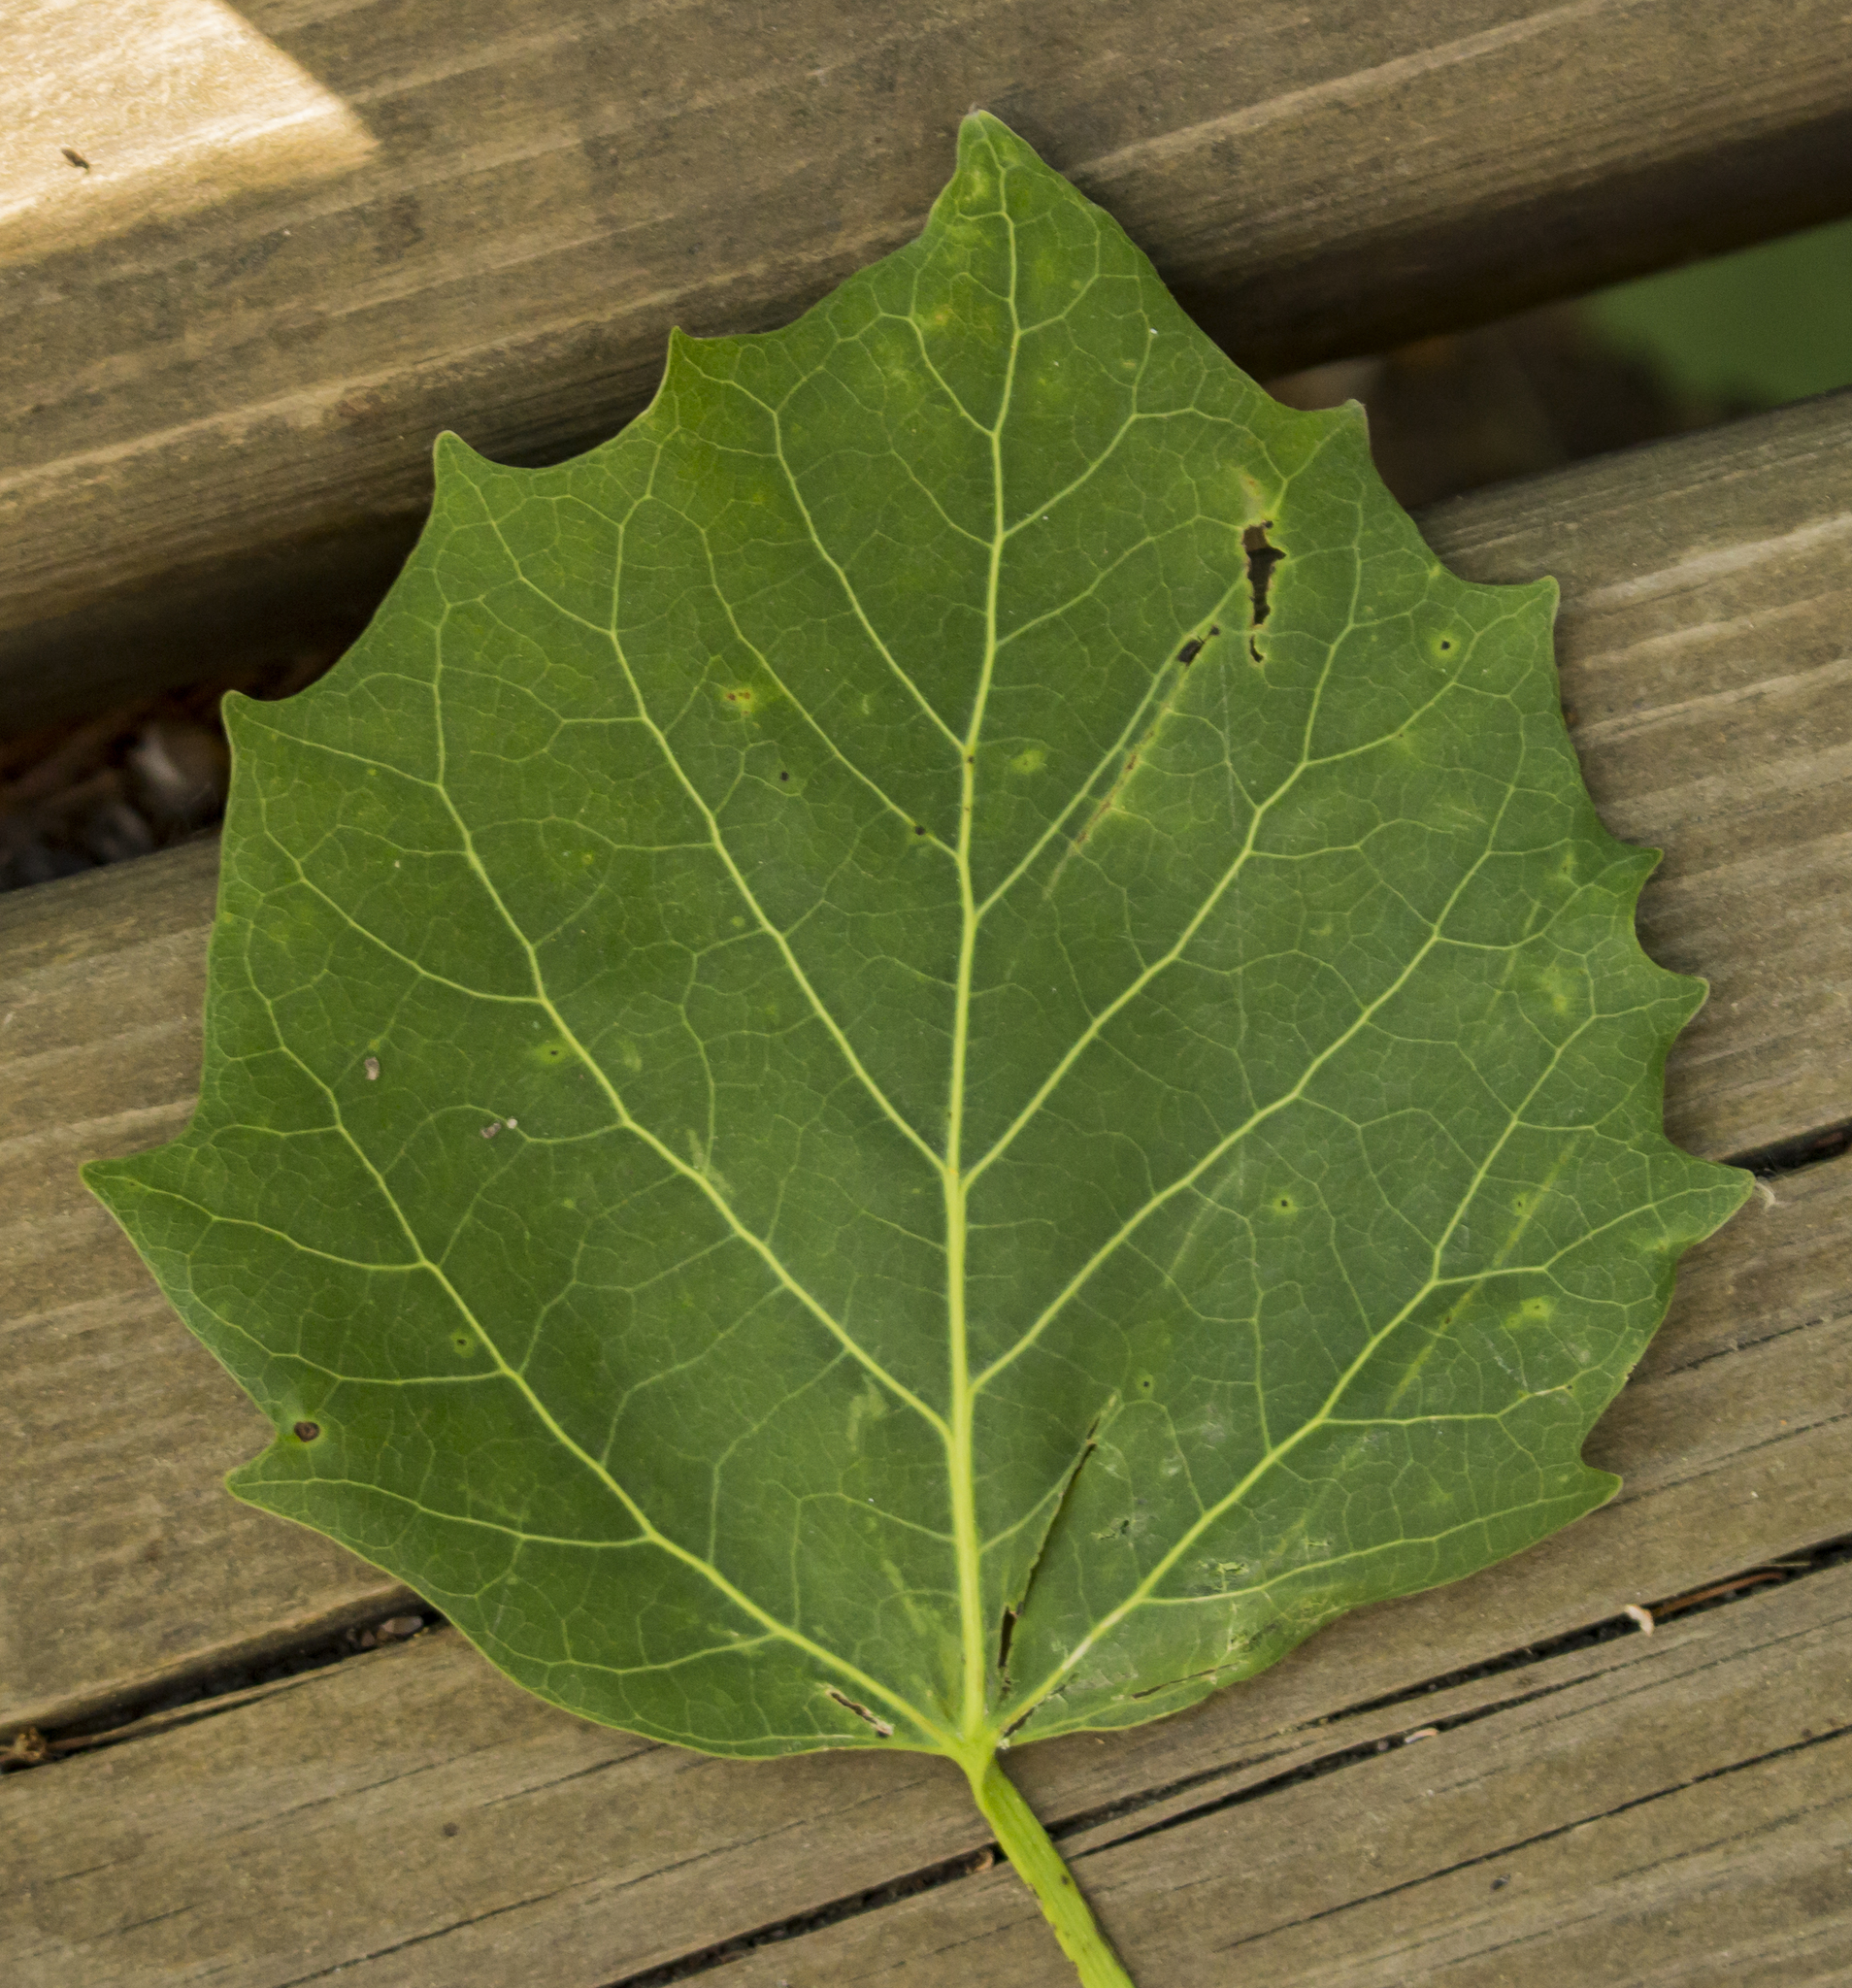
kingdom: Plantae
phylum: Tracheophyta
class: Magnoliopsida
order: Malpighiales
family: Salicaceae
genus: Populus
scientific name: Populus grandidentata
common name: Bigtooth aspen
